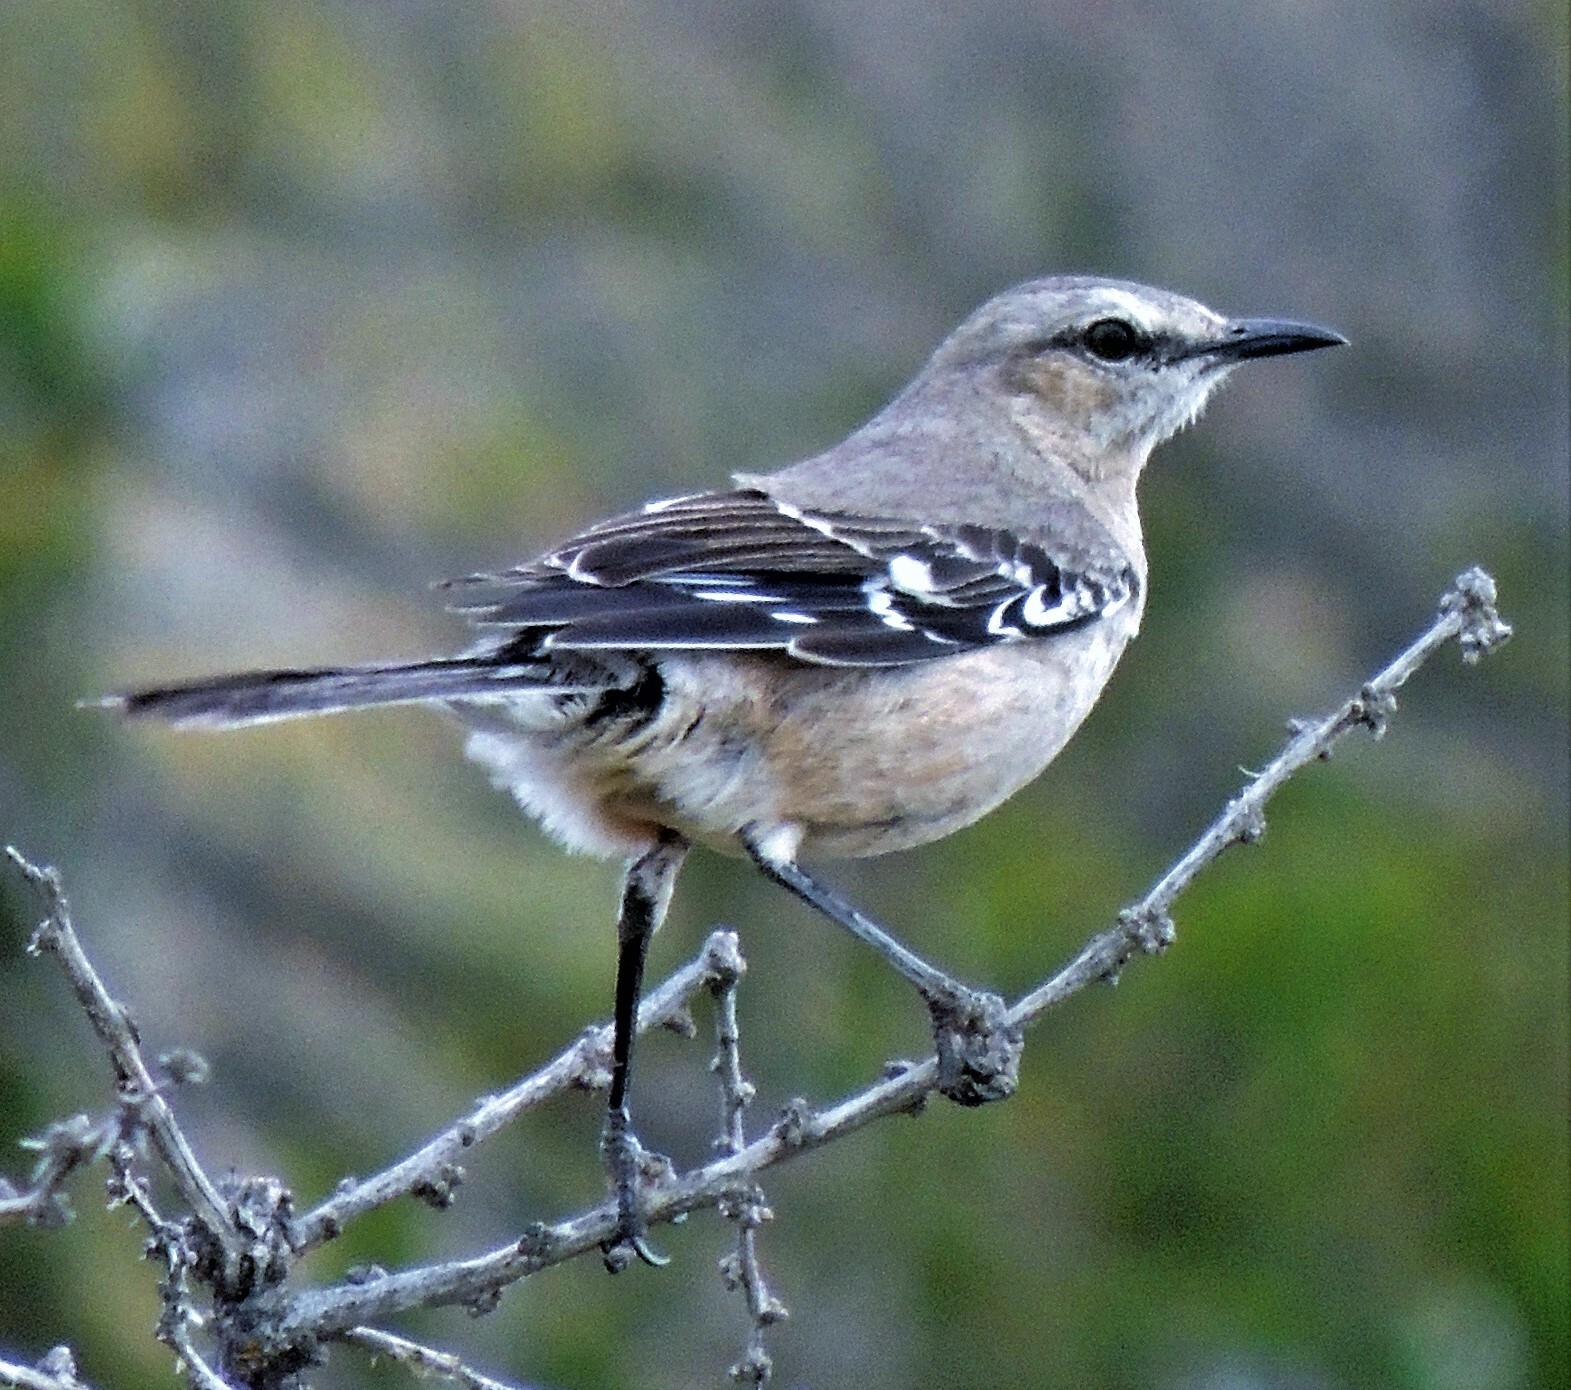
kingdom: Animalia
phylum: Chordata
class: Aves
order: Passeriformes
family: Mimidae
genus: Mimus
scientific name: Mimus patagonicus
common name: Patagonian mockingbird
